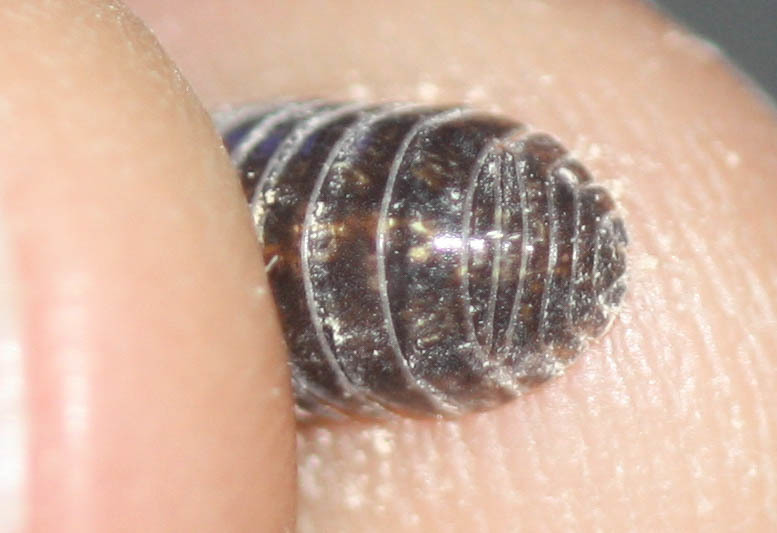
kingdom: Animalia
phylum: Arthropoda
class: Malacostraca
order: Isopoda
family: Armadillidiidae
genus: Armadillidium
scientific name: Armadillidium vulgare
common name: Common pill woodlouse
